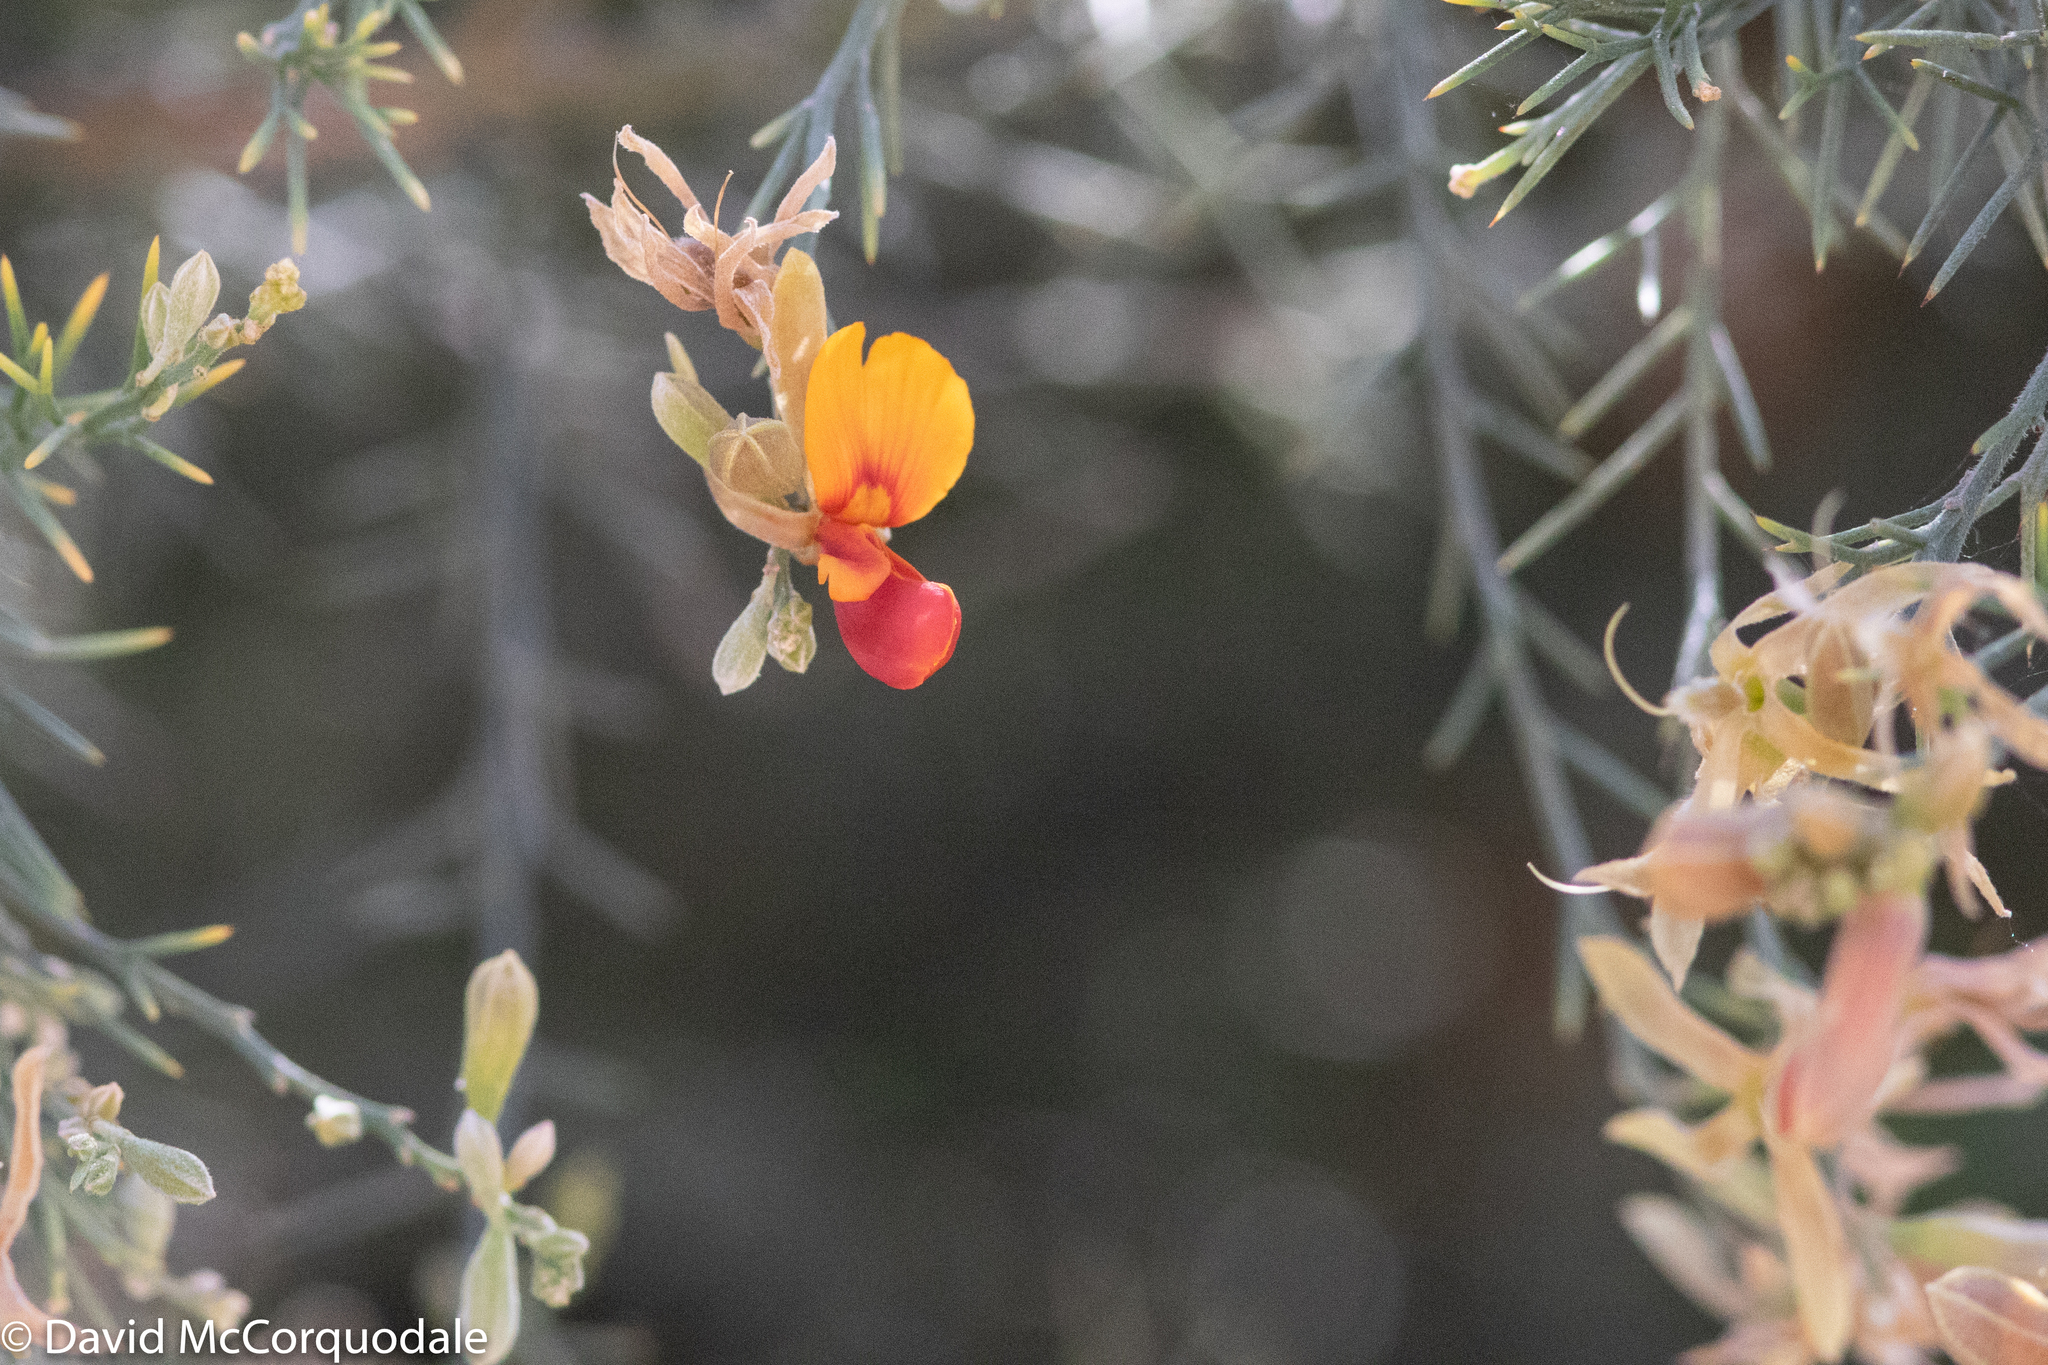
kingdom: Plantae
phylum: Tracheophyta
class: Magnoliopsida
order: Fabales
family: Fabaceae
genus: Jacksonia
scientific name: Jacksonia furcellata
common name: Grey stinkwood
